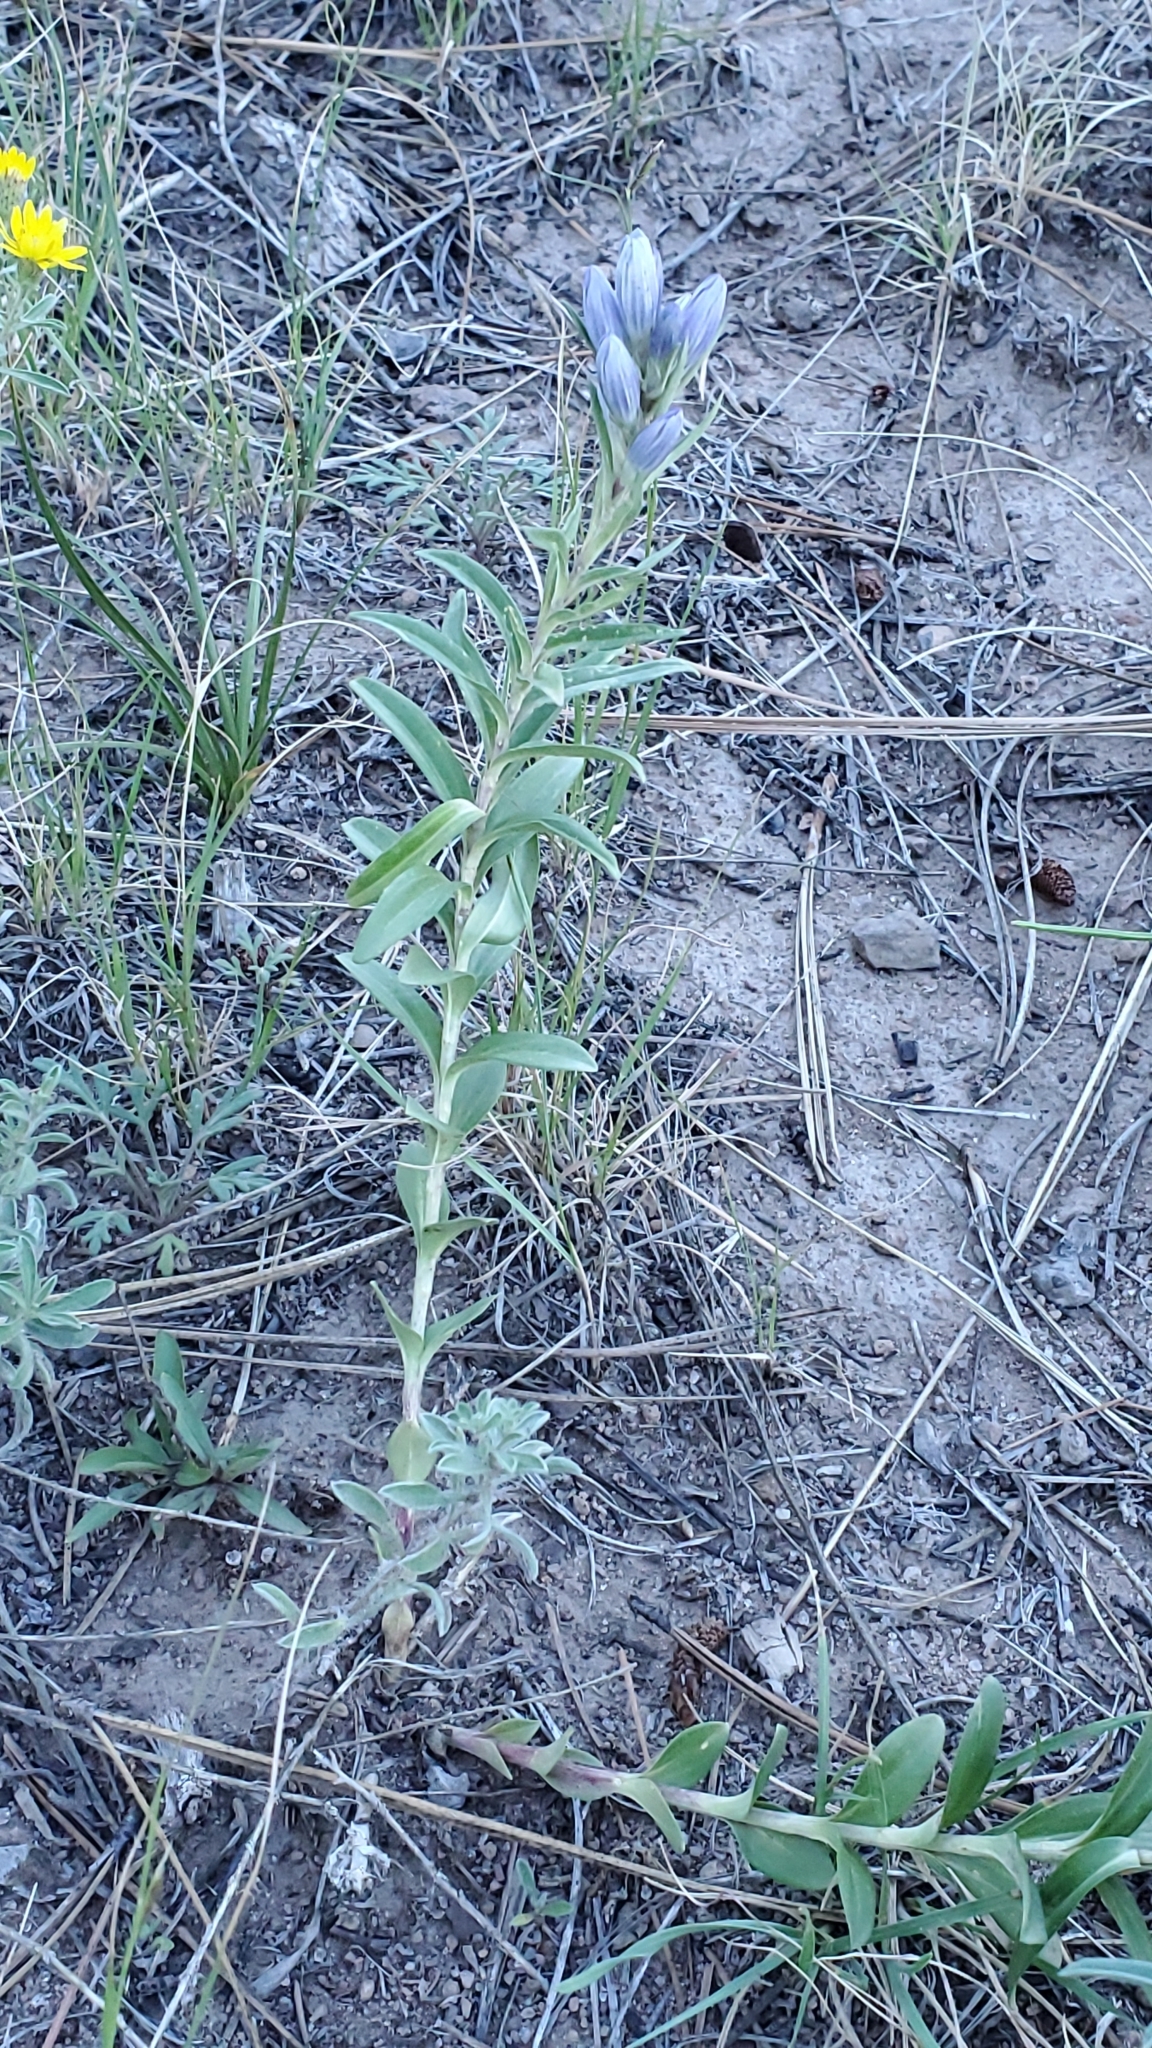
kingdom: Plantae
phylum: Tracheophyta
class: Magnoliopsida
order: Gentianales
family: Gentianaceae
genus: Gentiana
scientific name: Gentiana affinis
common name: Rocky mountain gentian
